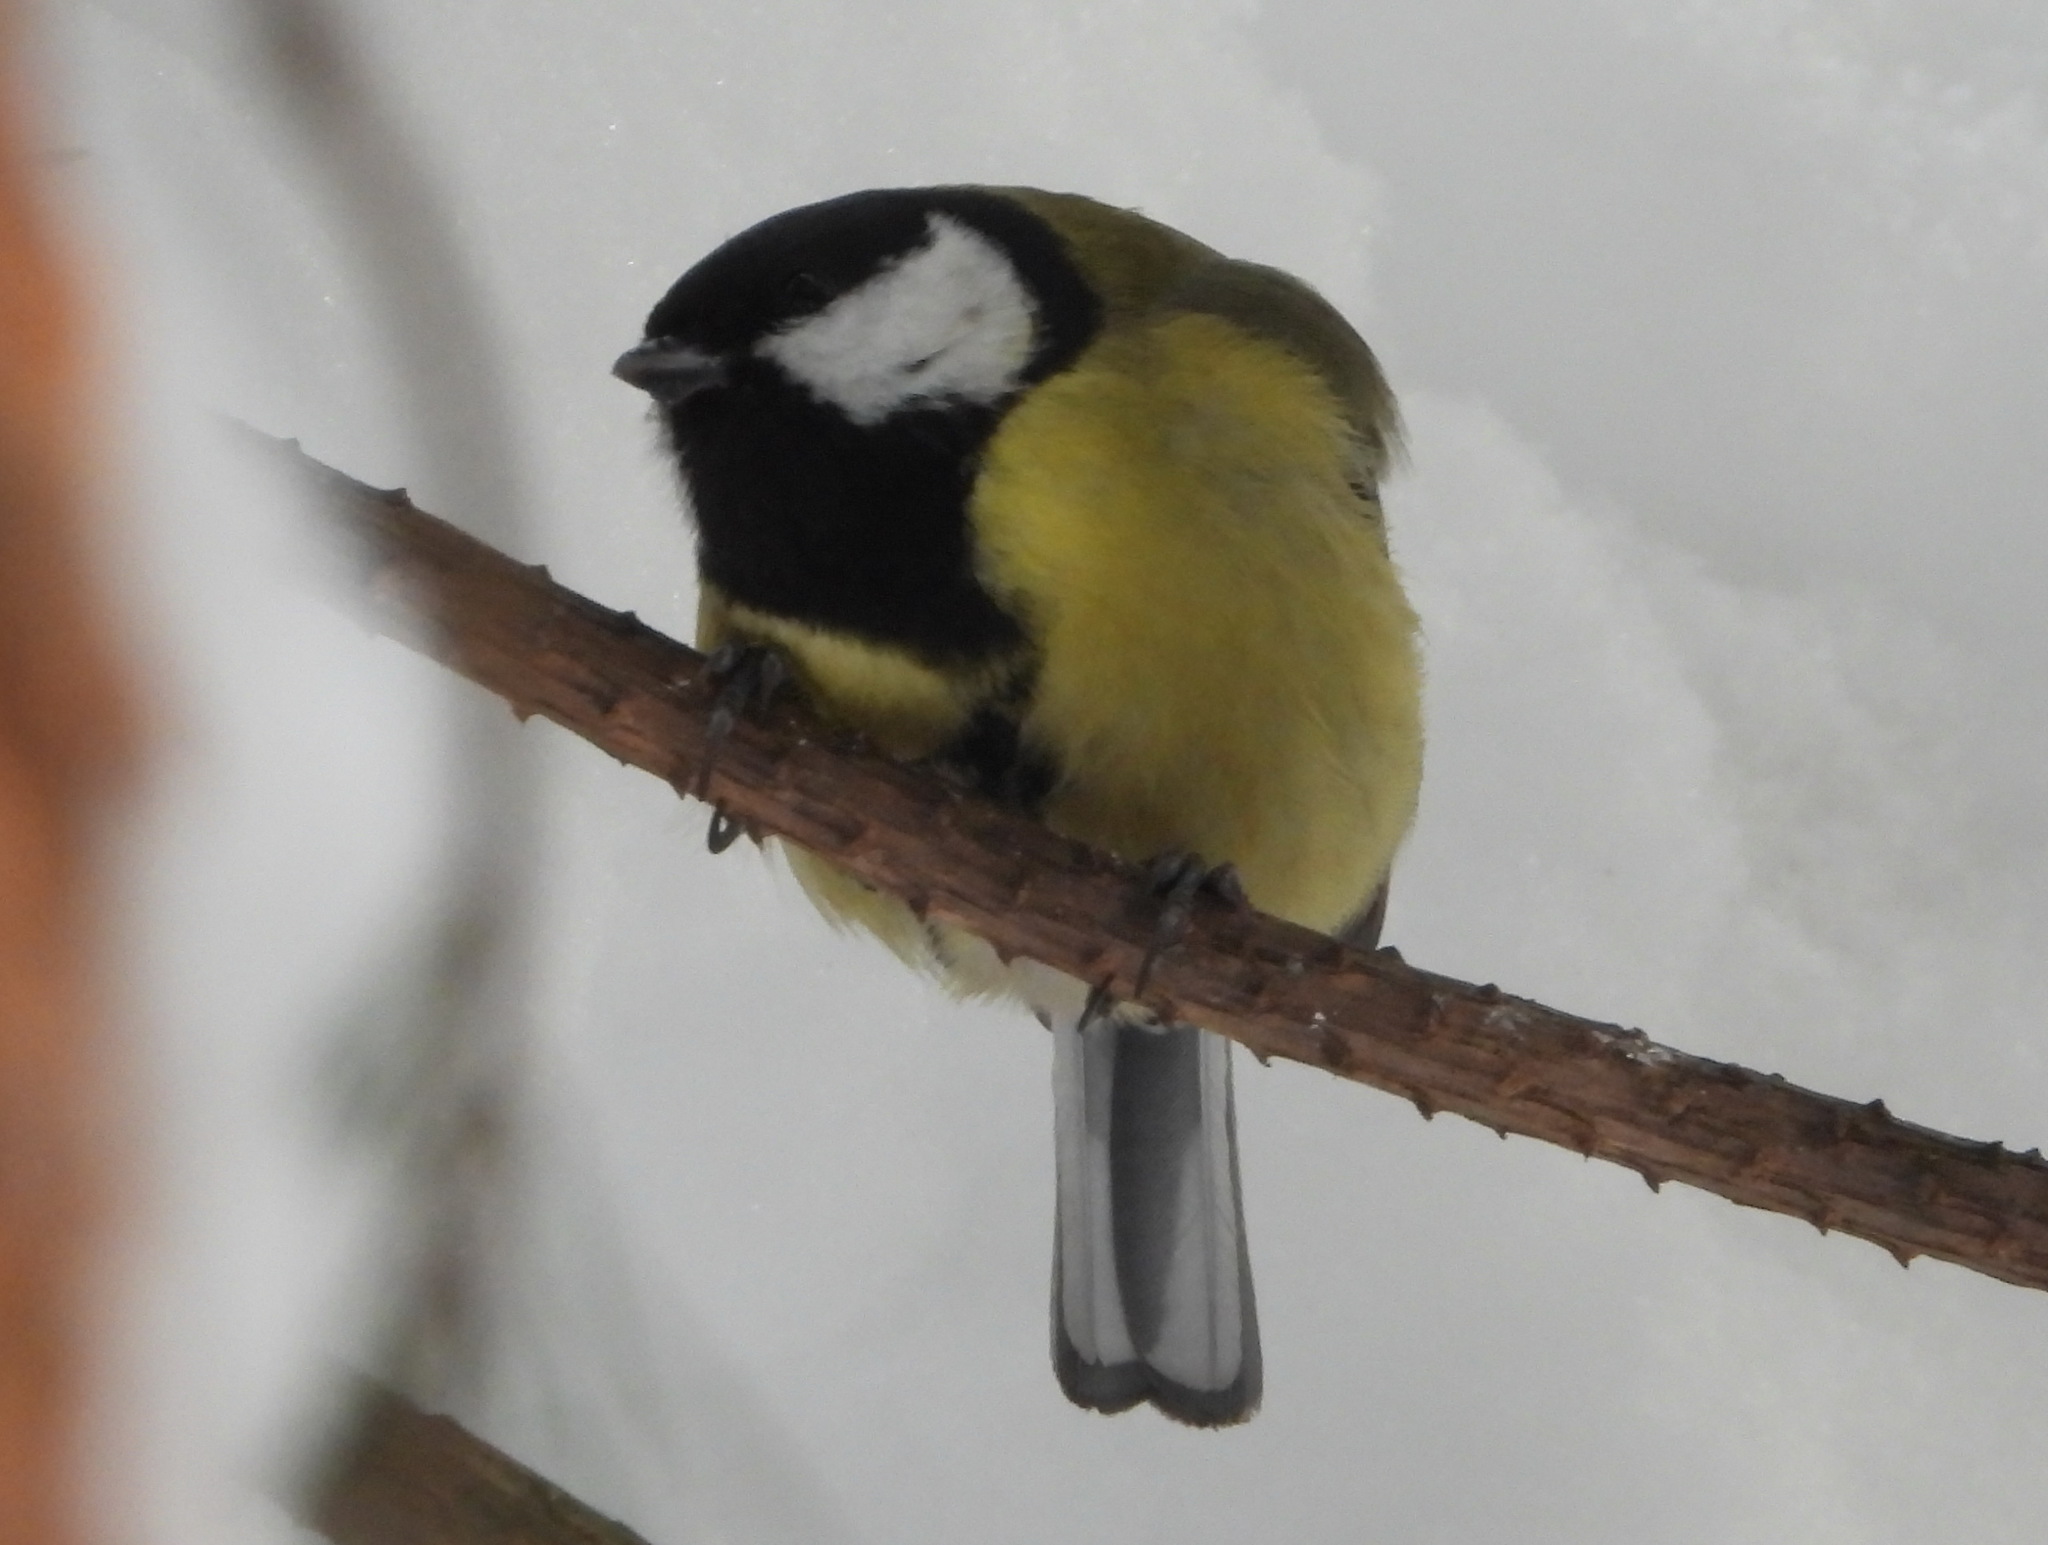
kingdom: Animalia
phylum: Chordata
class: Aves
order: Passeriformes
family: Paridae
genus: Parus
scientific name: Parus major
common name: Great tit
